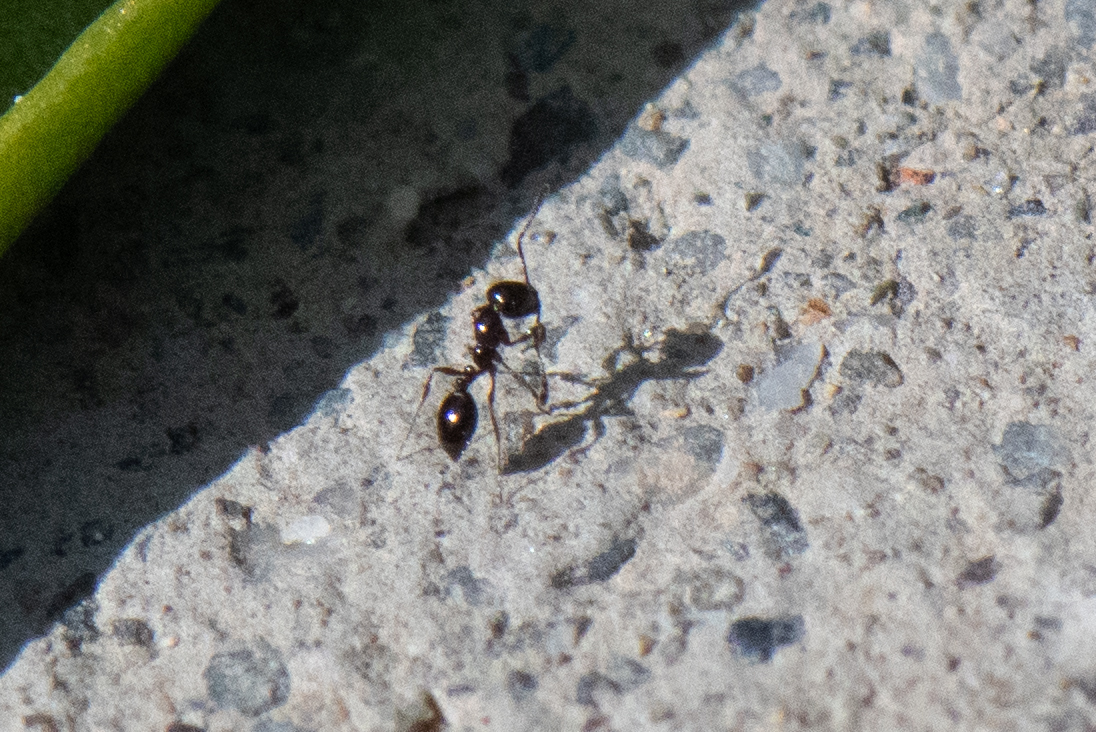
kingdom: Animalia
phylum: Arthropoda
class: Insecta
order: Hymenoptera
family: Formicidae
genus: Monomorium
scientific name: Monomorium ergatogyna
